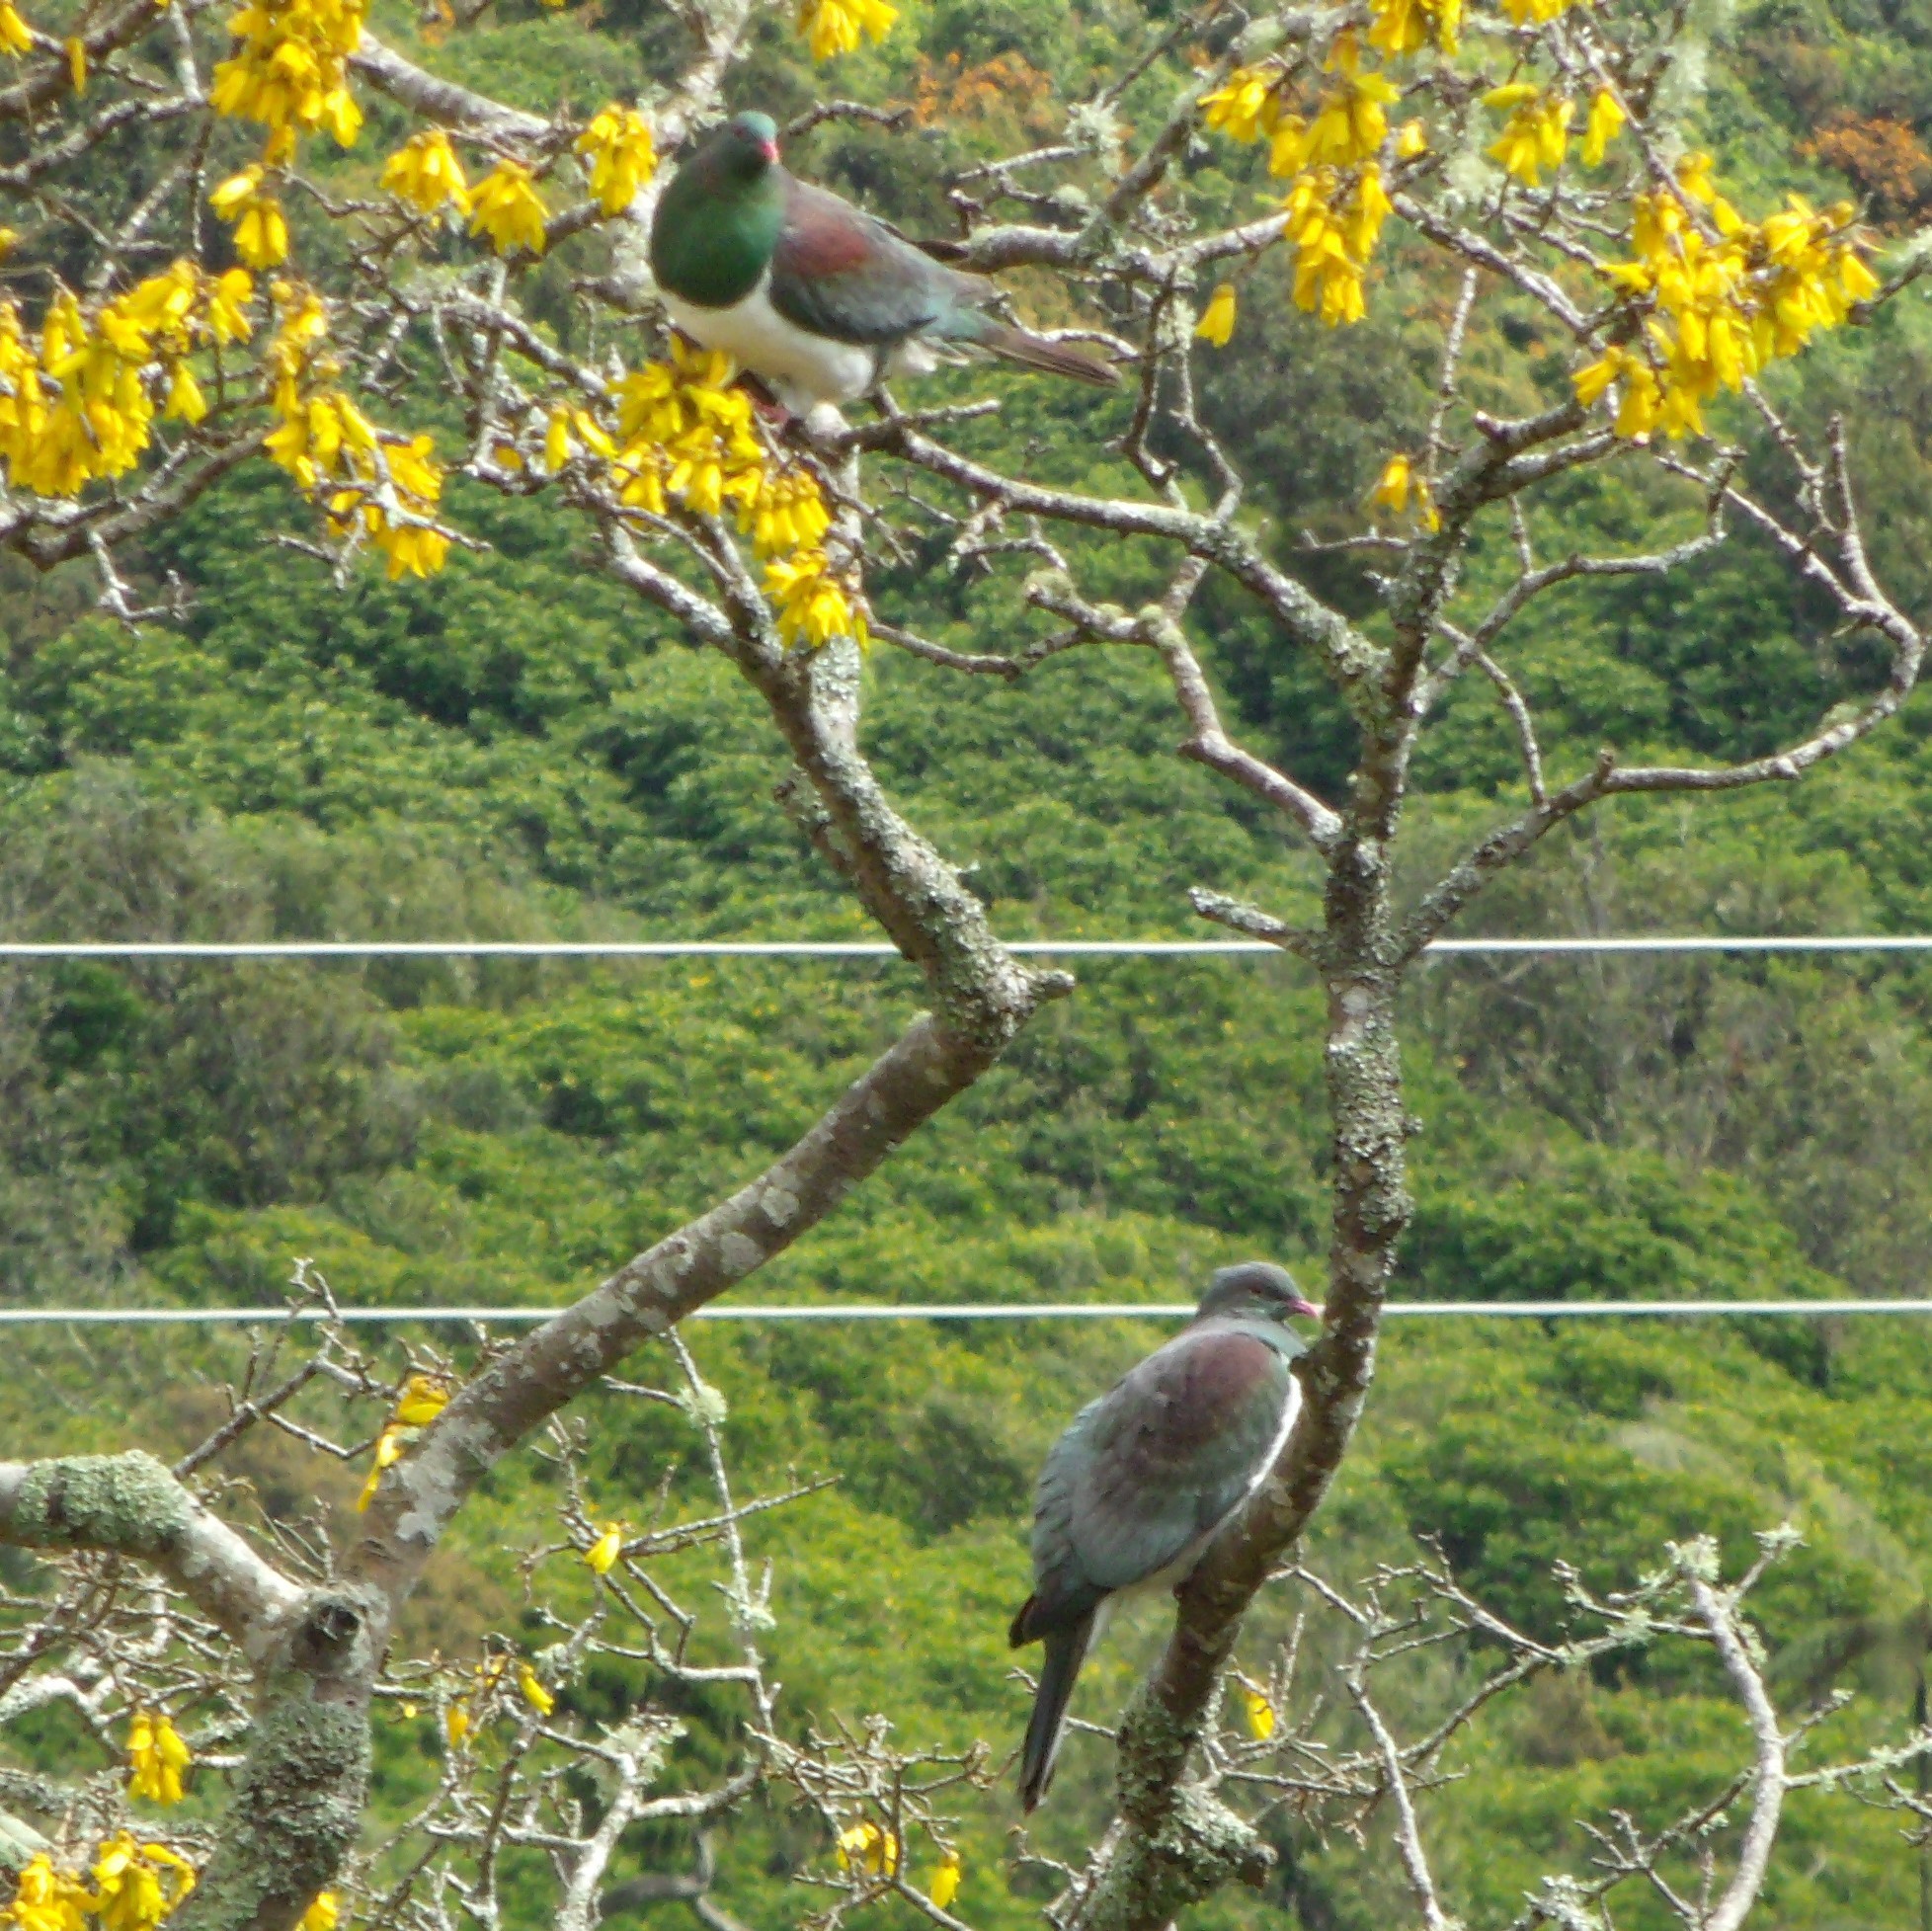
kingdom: Animalia
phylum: Chordata
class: Aves
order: Columbiformes
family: Columbidae
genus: Hemiphaga
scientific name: Hemiphaga novaeseelandiae
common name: New zealand pigeon
